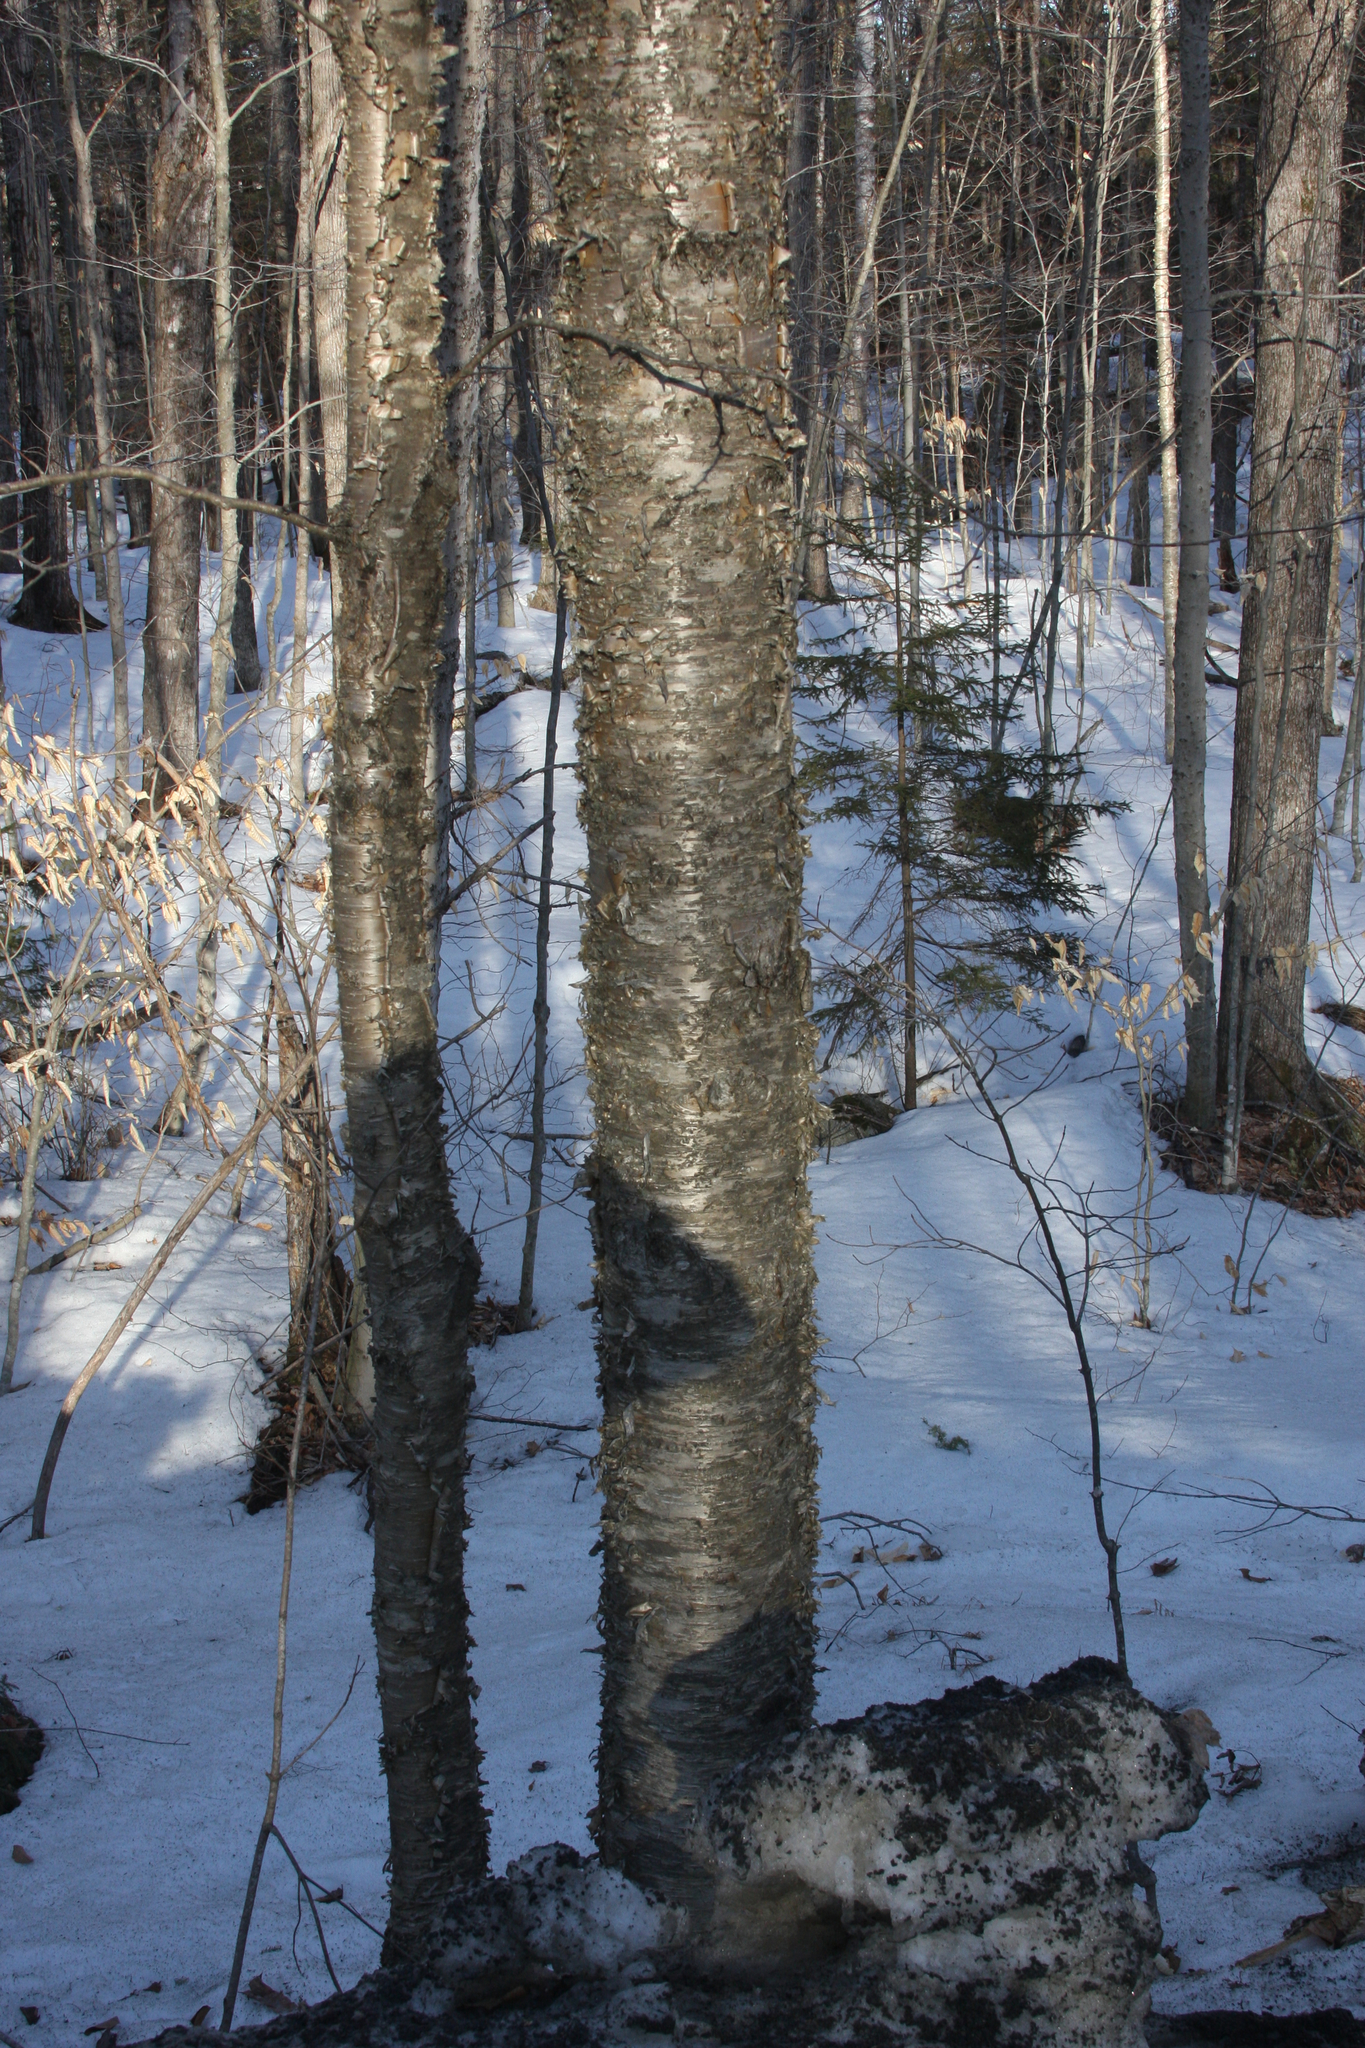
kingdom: Plantae
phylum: Tracheophyta
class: Magnoliopsida
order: Fagales
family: Betulaceae
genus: Betula
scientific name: Betula alleghaniensis
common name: Yellow birch
